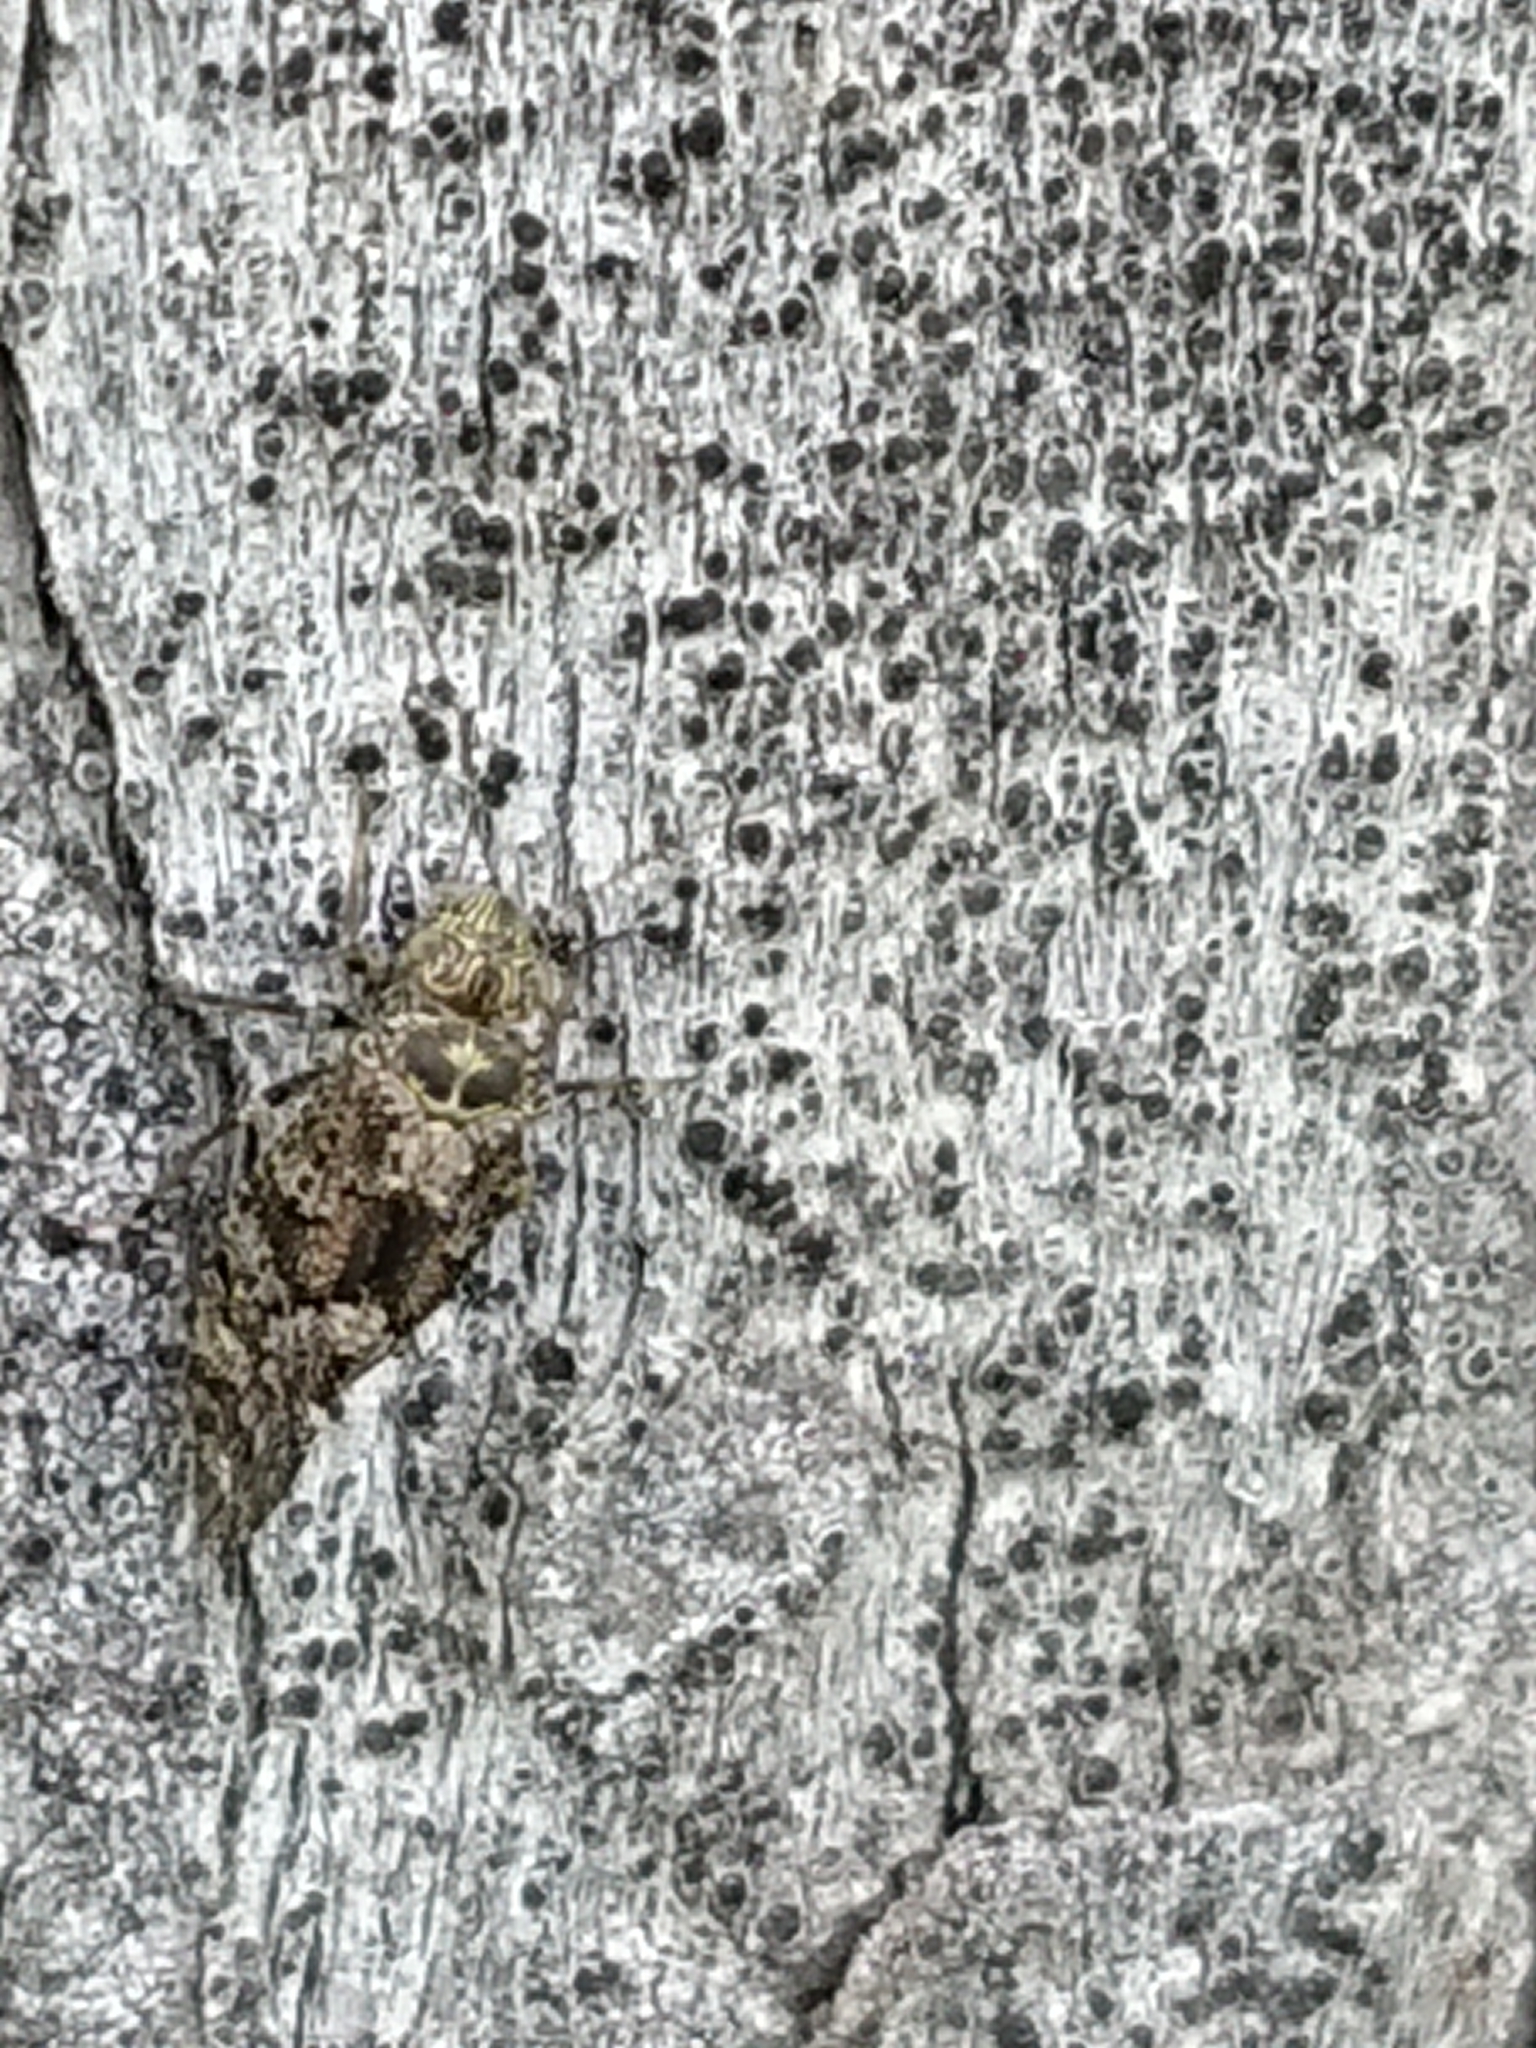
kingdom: Animalia
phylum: Arthropoda
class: Insecta
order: Psocodea
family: Myopsocidae
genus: Nimbopsocus
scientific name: Nimbopsocus australis
